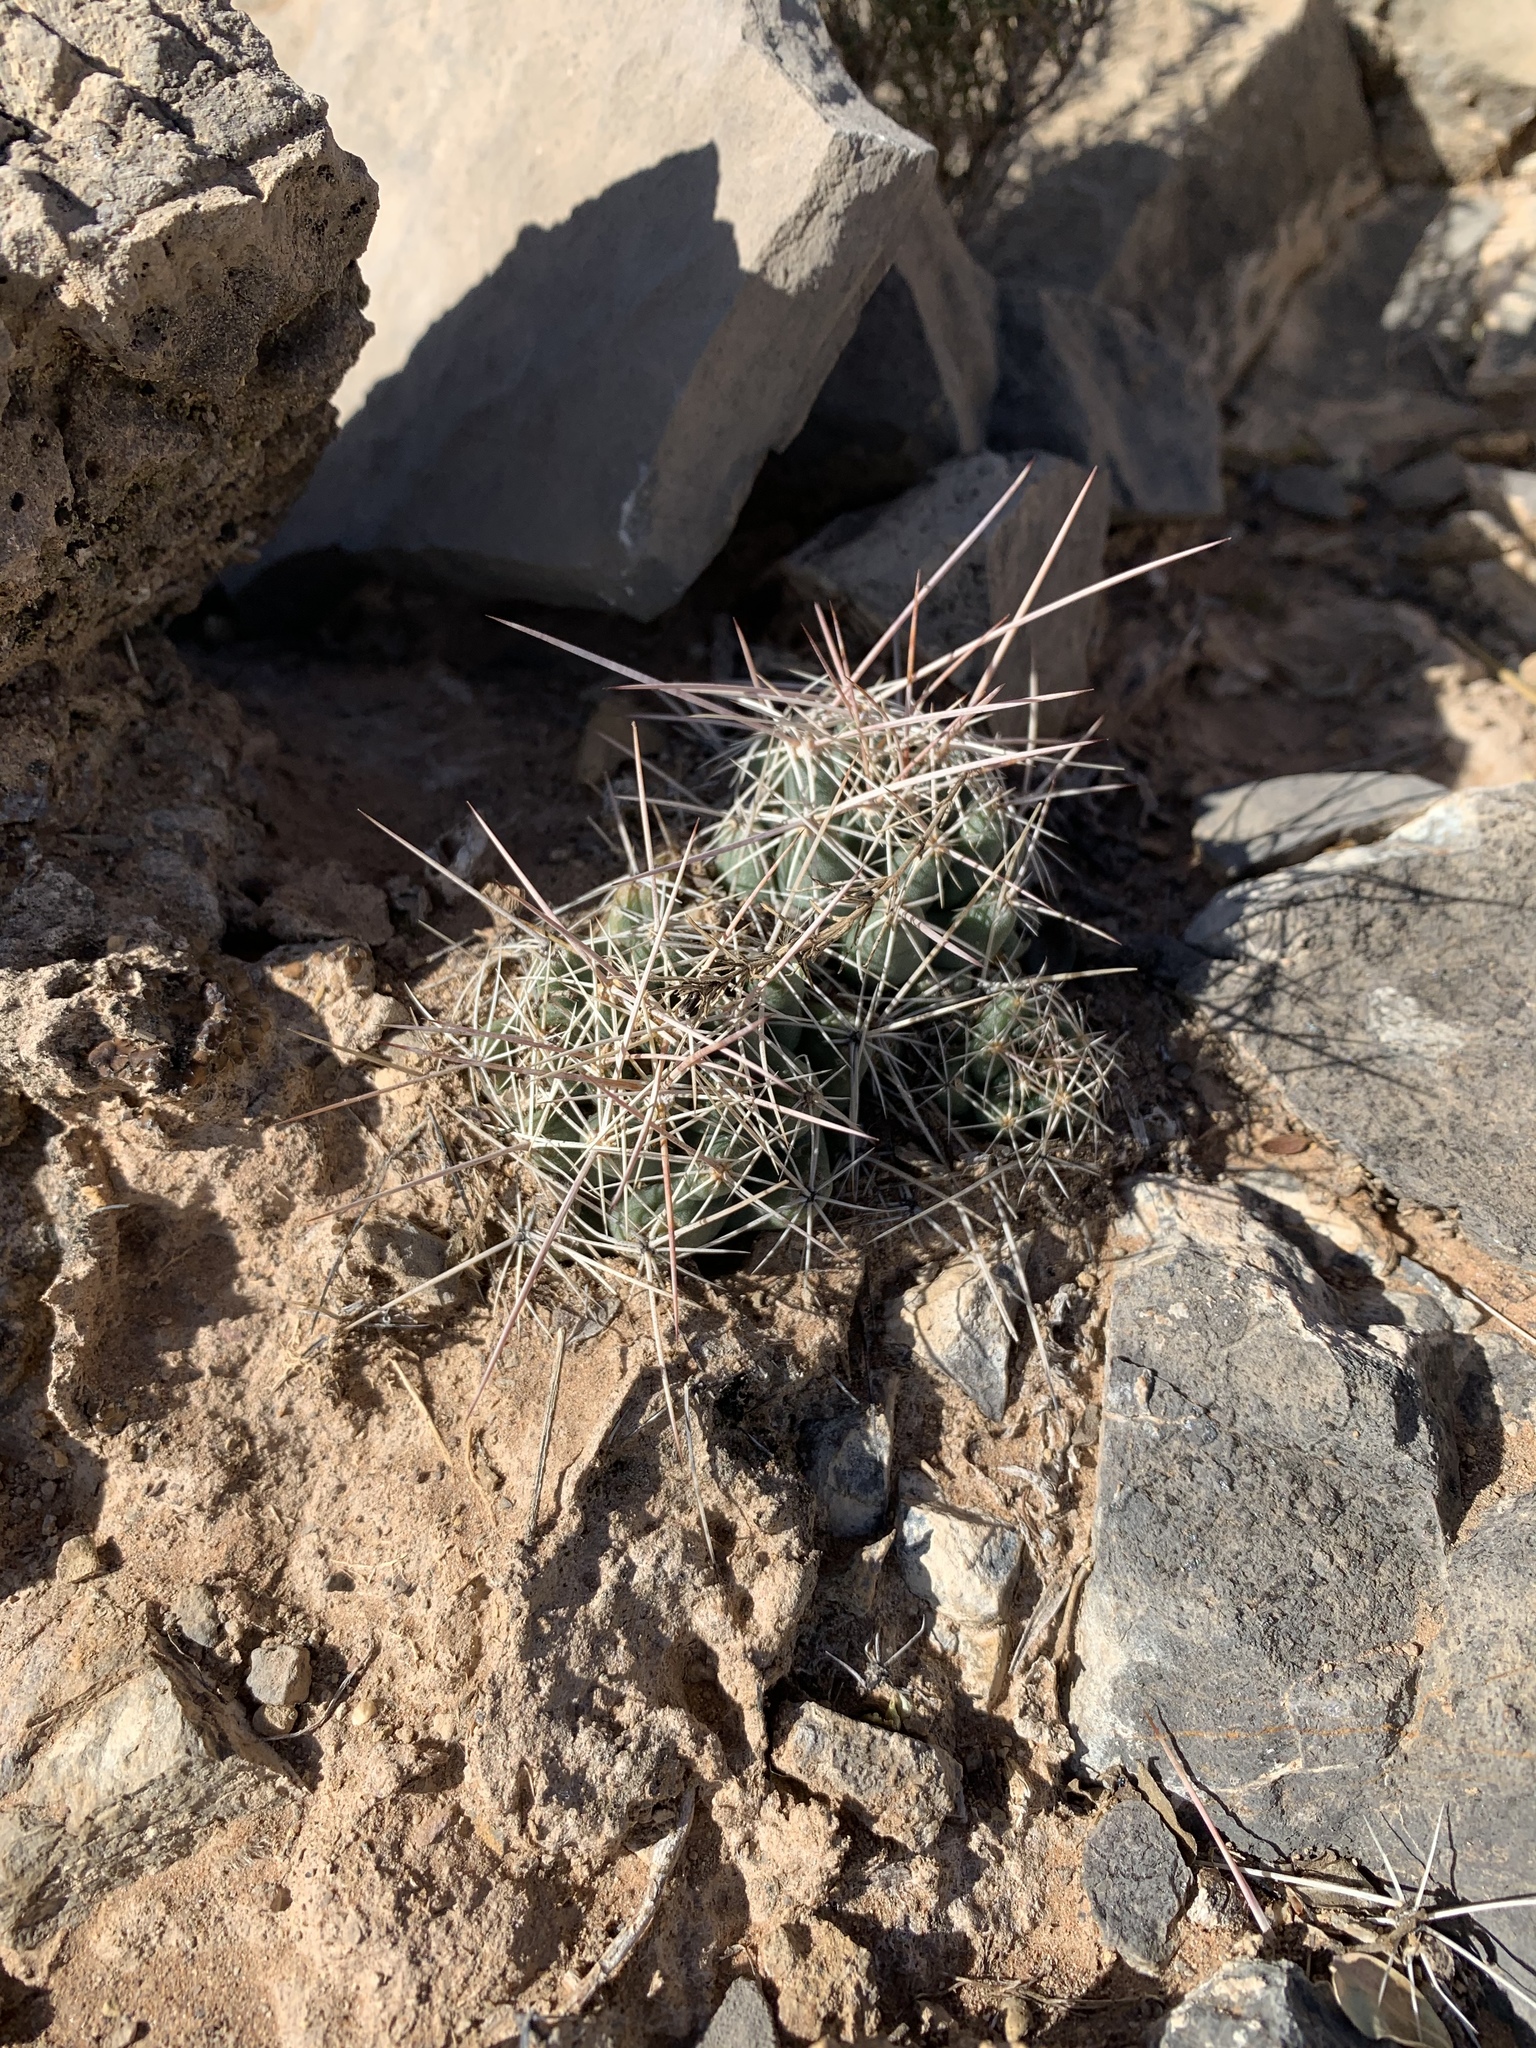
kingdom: Plantae
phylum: Tracheophyta
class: Magnoliopsida
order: Caryophyllales
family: Cactaceae
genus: Coryphantha
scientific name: Coryphantha macromeris
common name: Nipple beehive cactus
